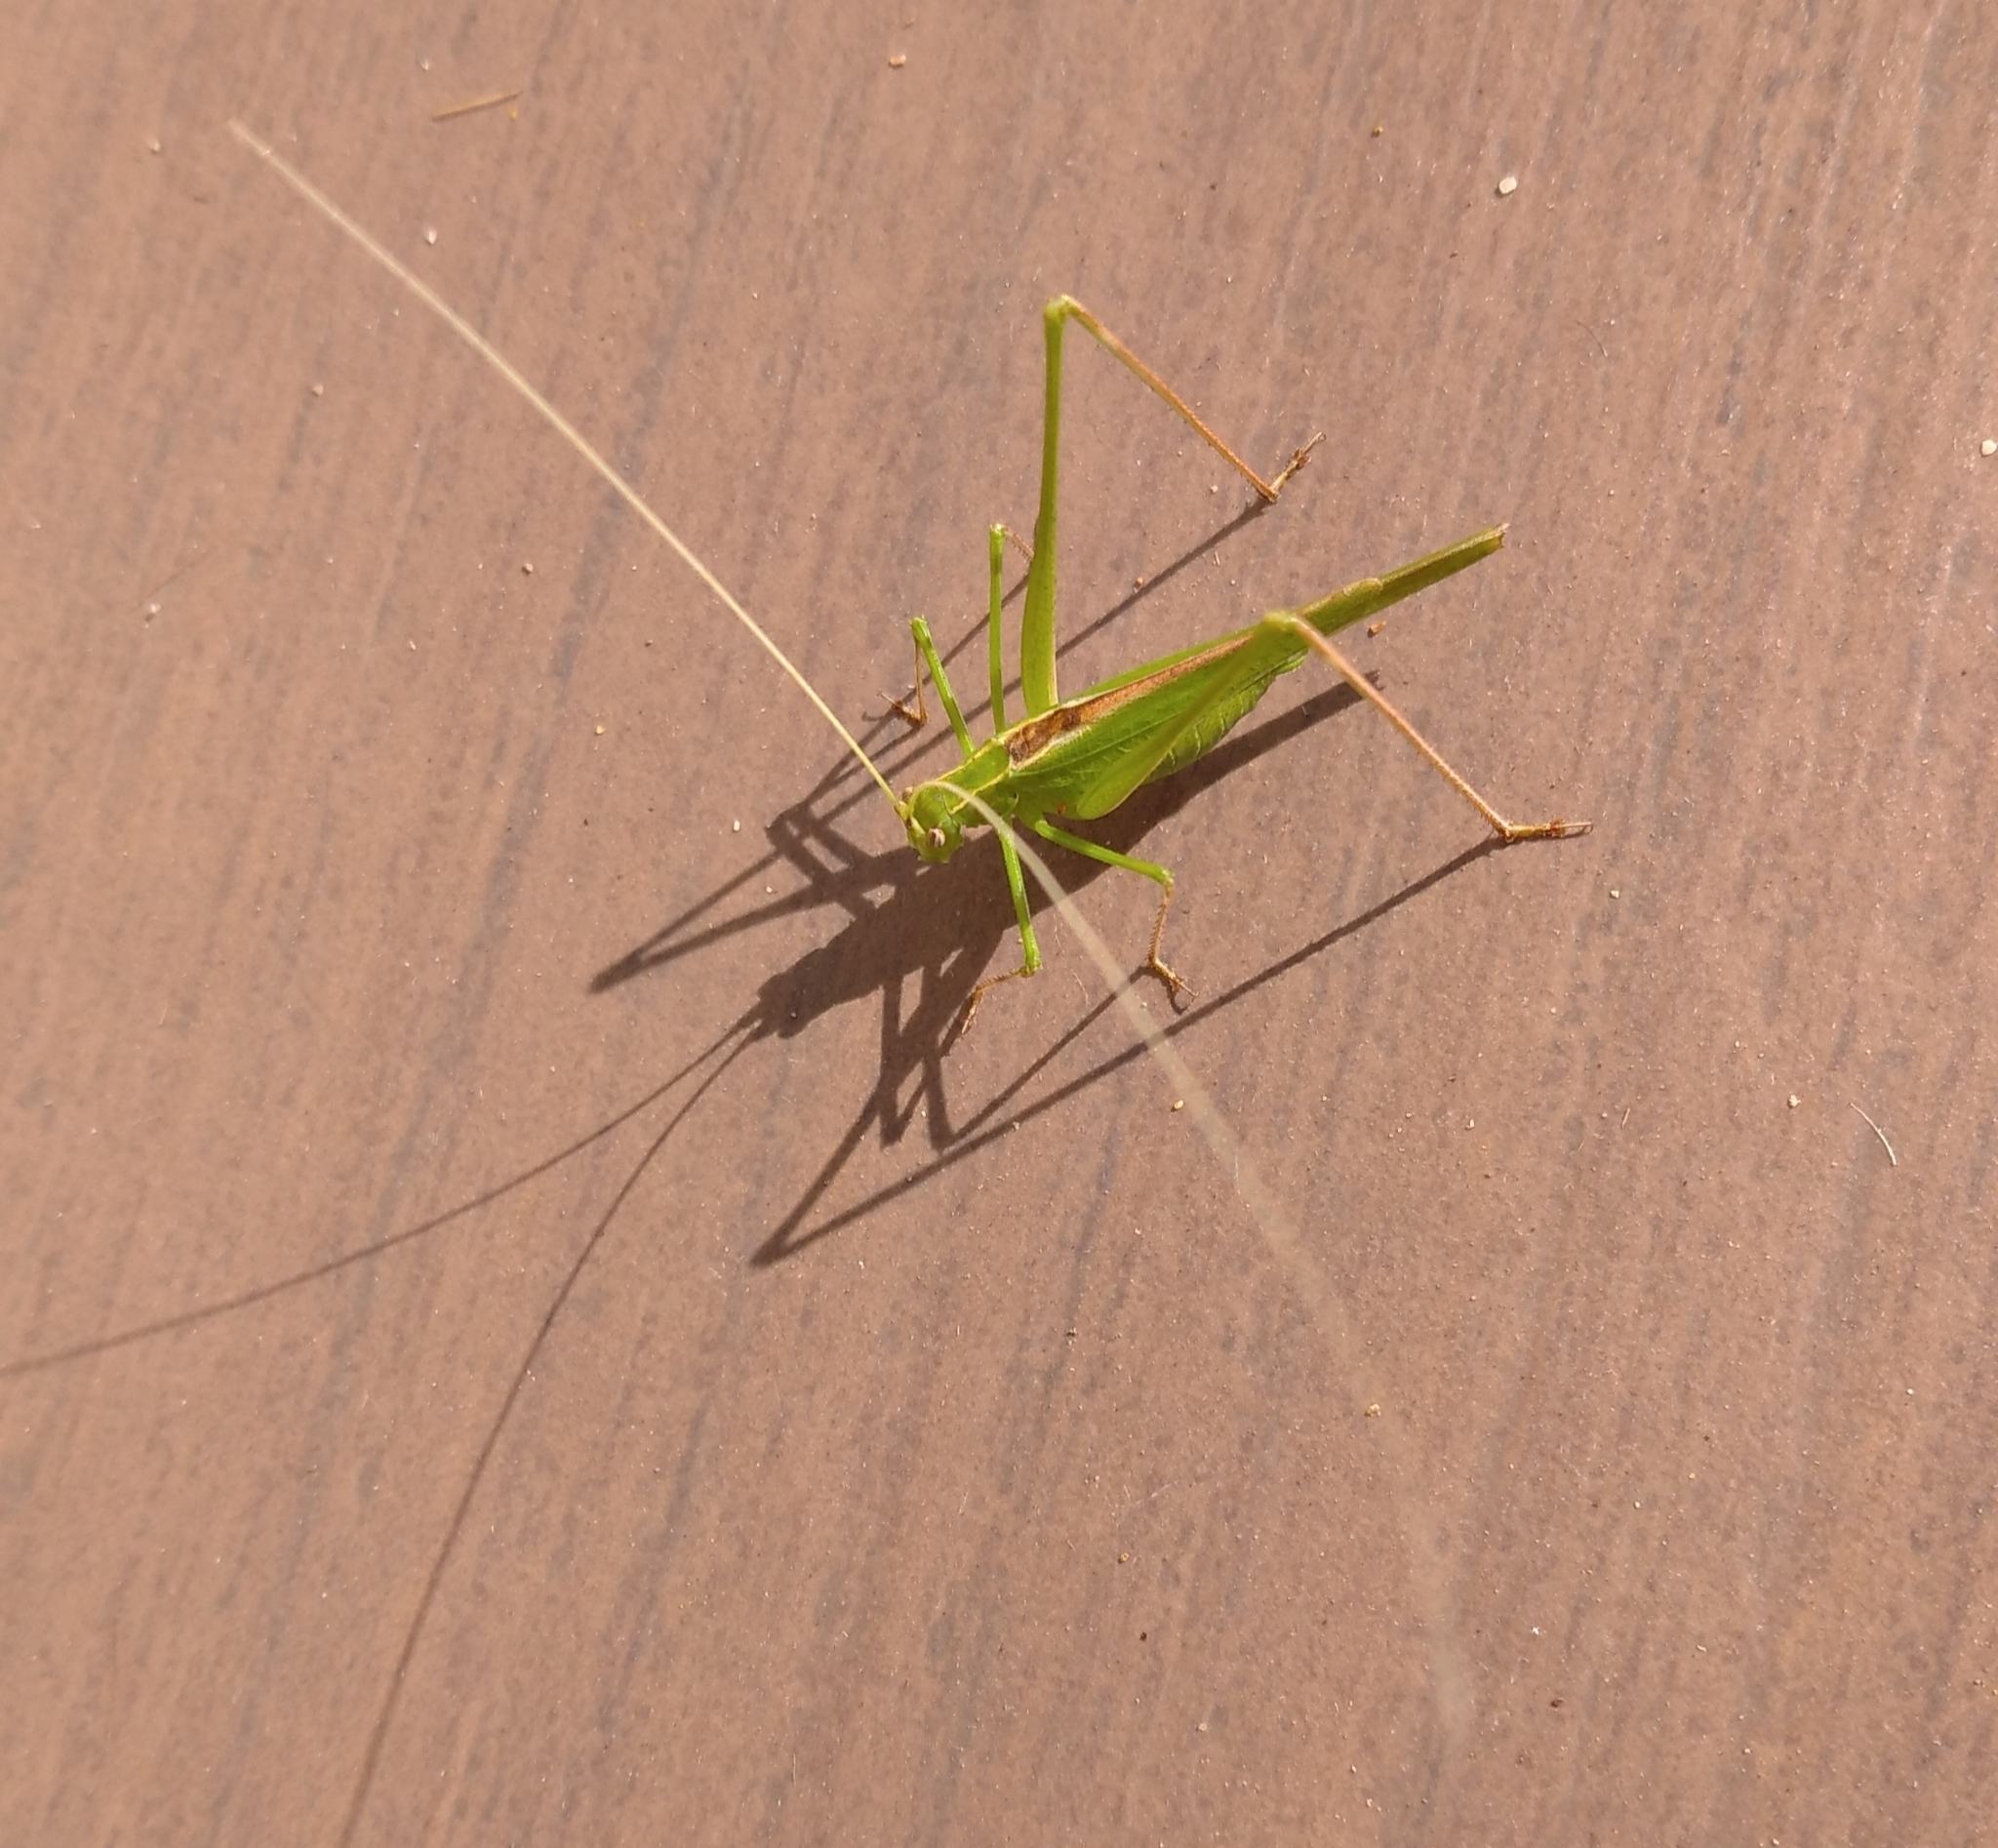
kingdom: Animalia
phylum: Arthropoda
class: Insecta
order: Orthoptera
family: Tettigoniidae
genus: Tylopsis
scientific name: Tylopsis lilifolia
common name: Lily bush-cricket
